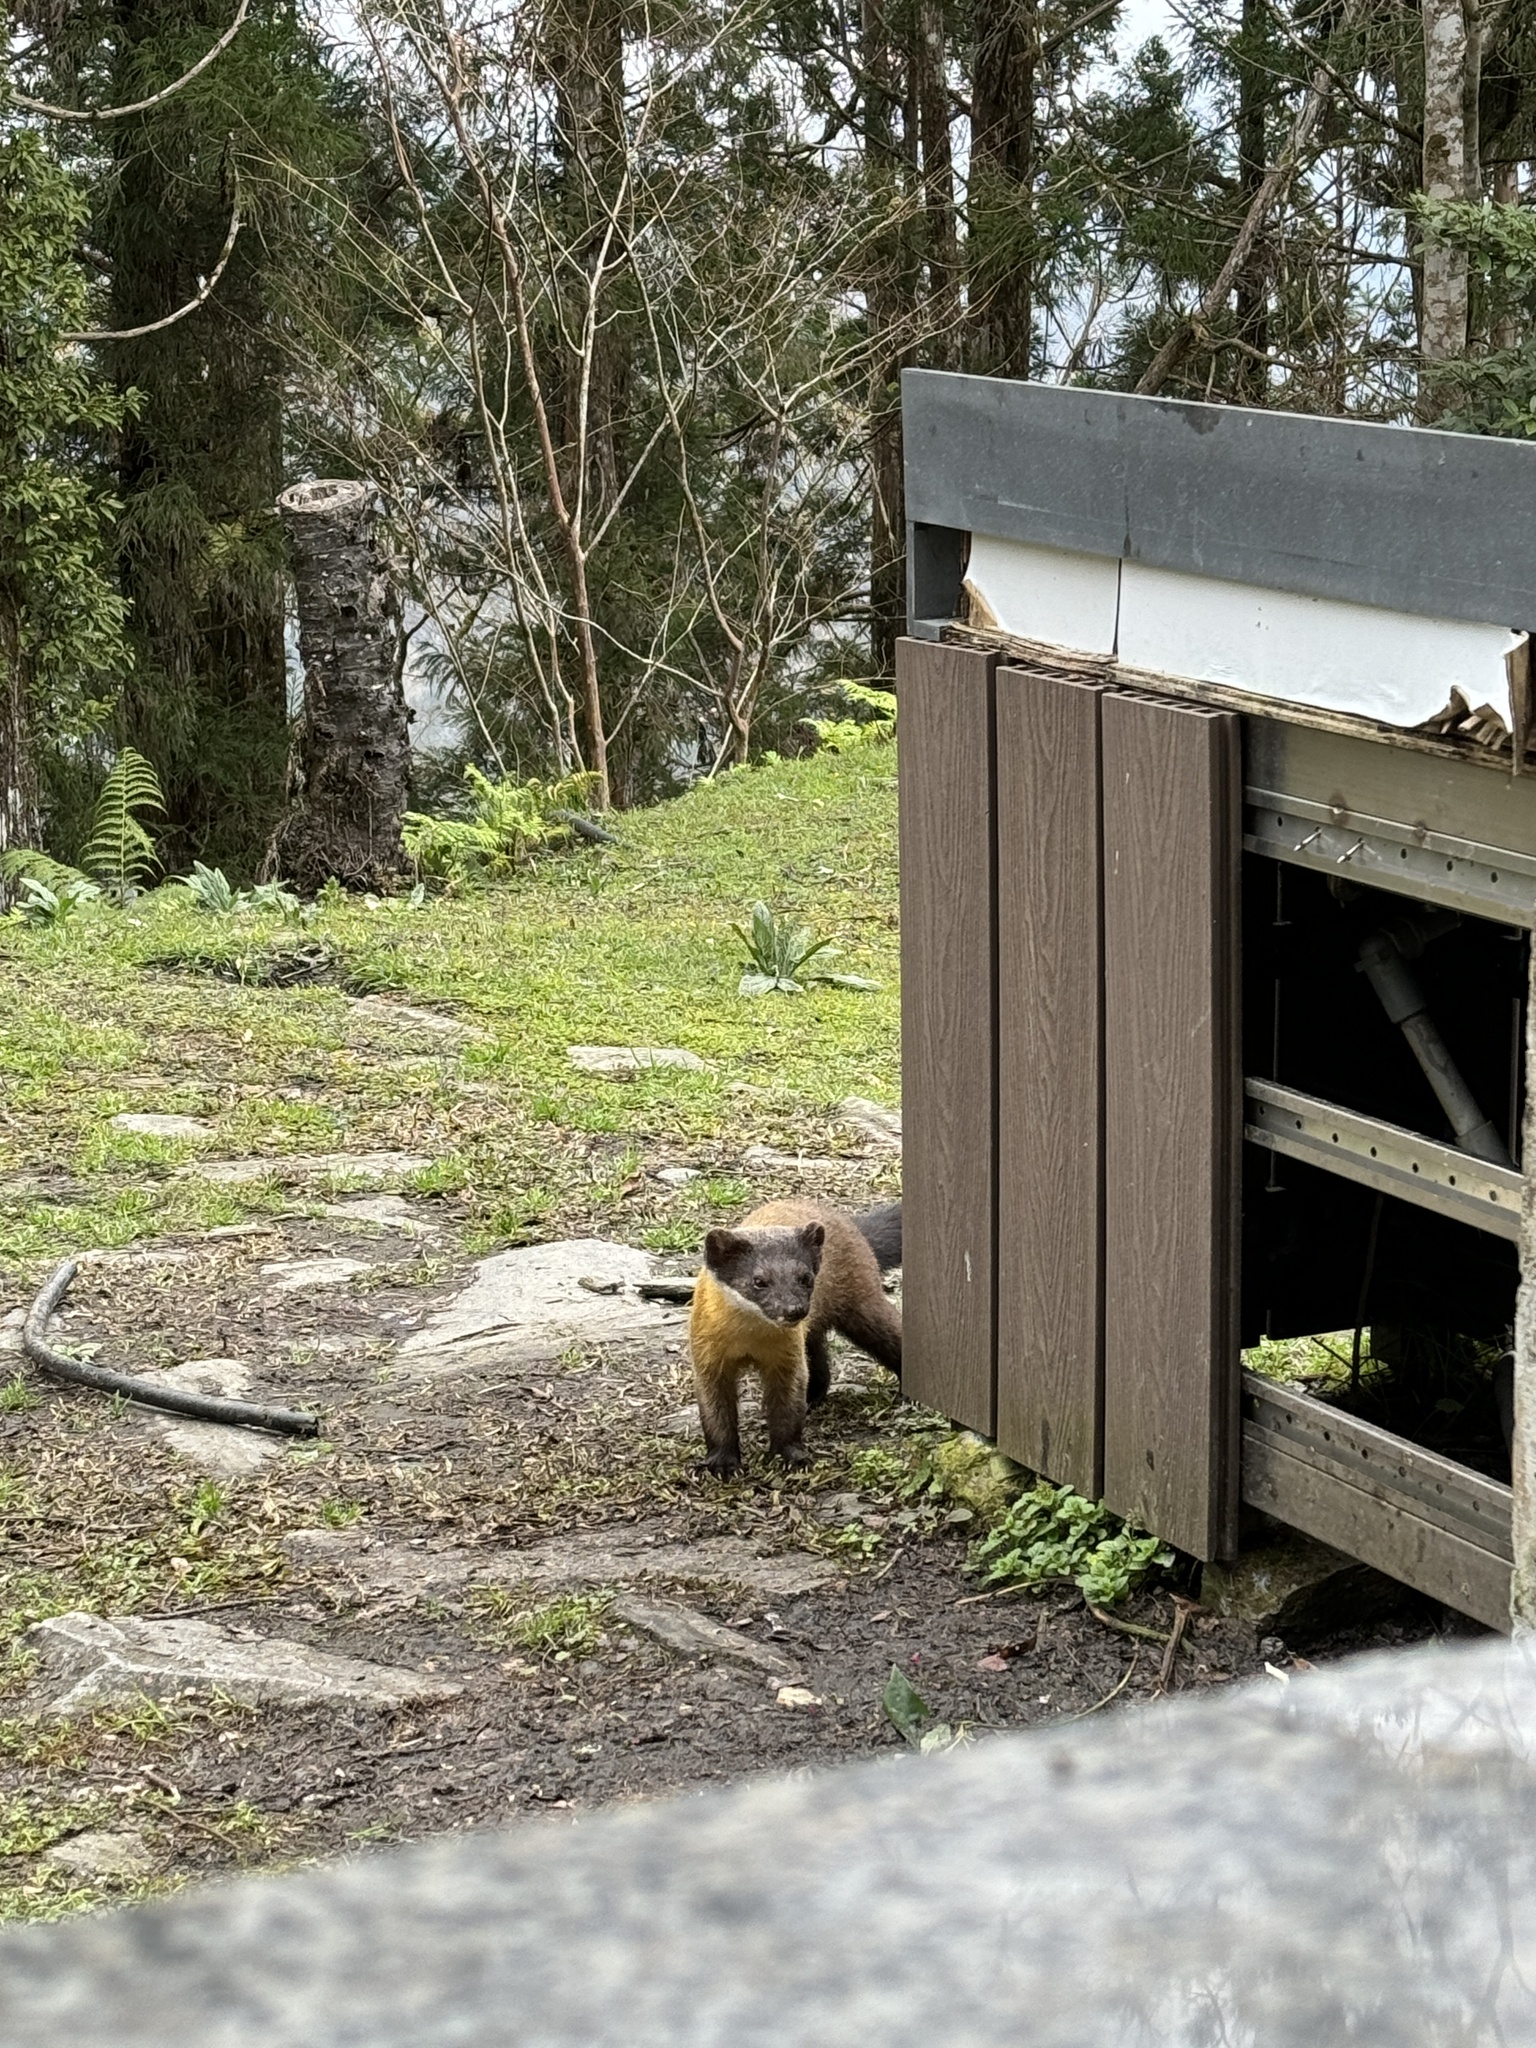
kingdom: Animalia
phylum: Chordata
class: Mammalia
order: Carnivora
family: Mustelidae
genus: Martes
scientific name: Martes flavigula
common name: Yellow-throated marten
